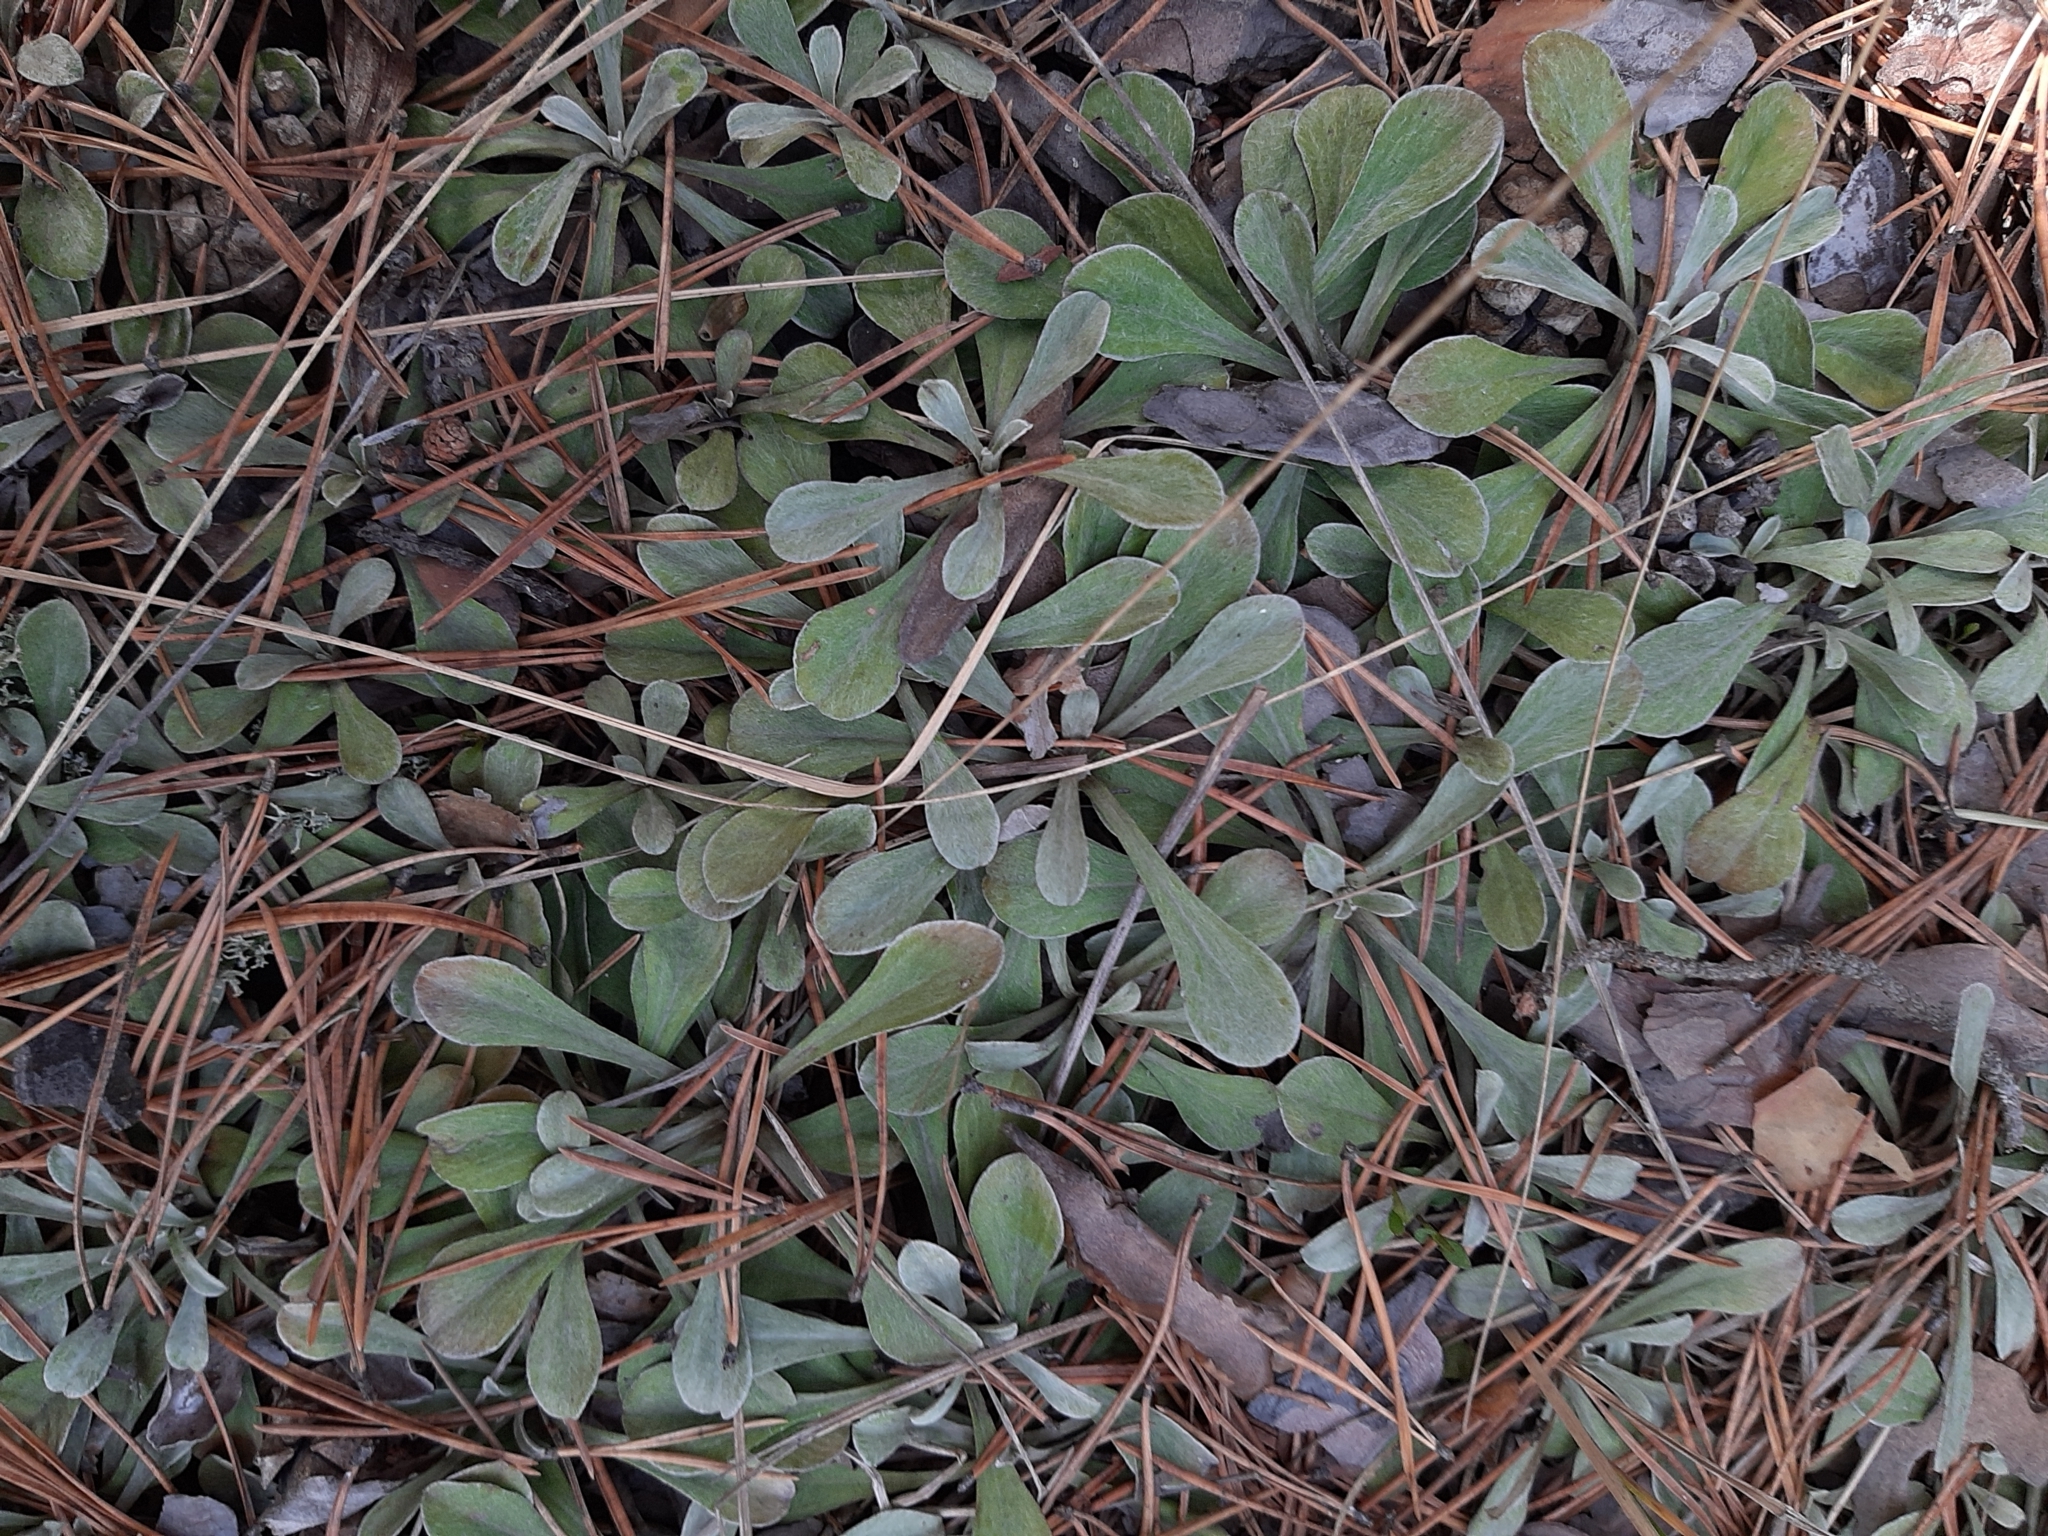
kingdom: Plantae
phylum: Tracheophyta
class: Magnoliopsida
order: Asterales
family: Asteraceae
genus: Antennaria
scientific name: Antennaria dioica
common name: Mountain everlasting
